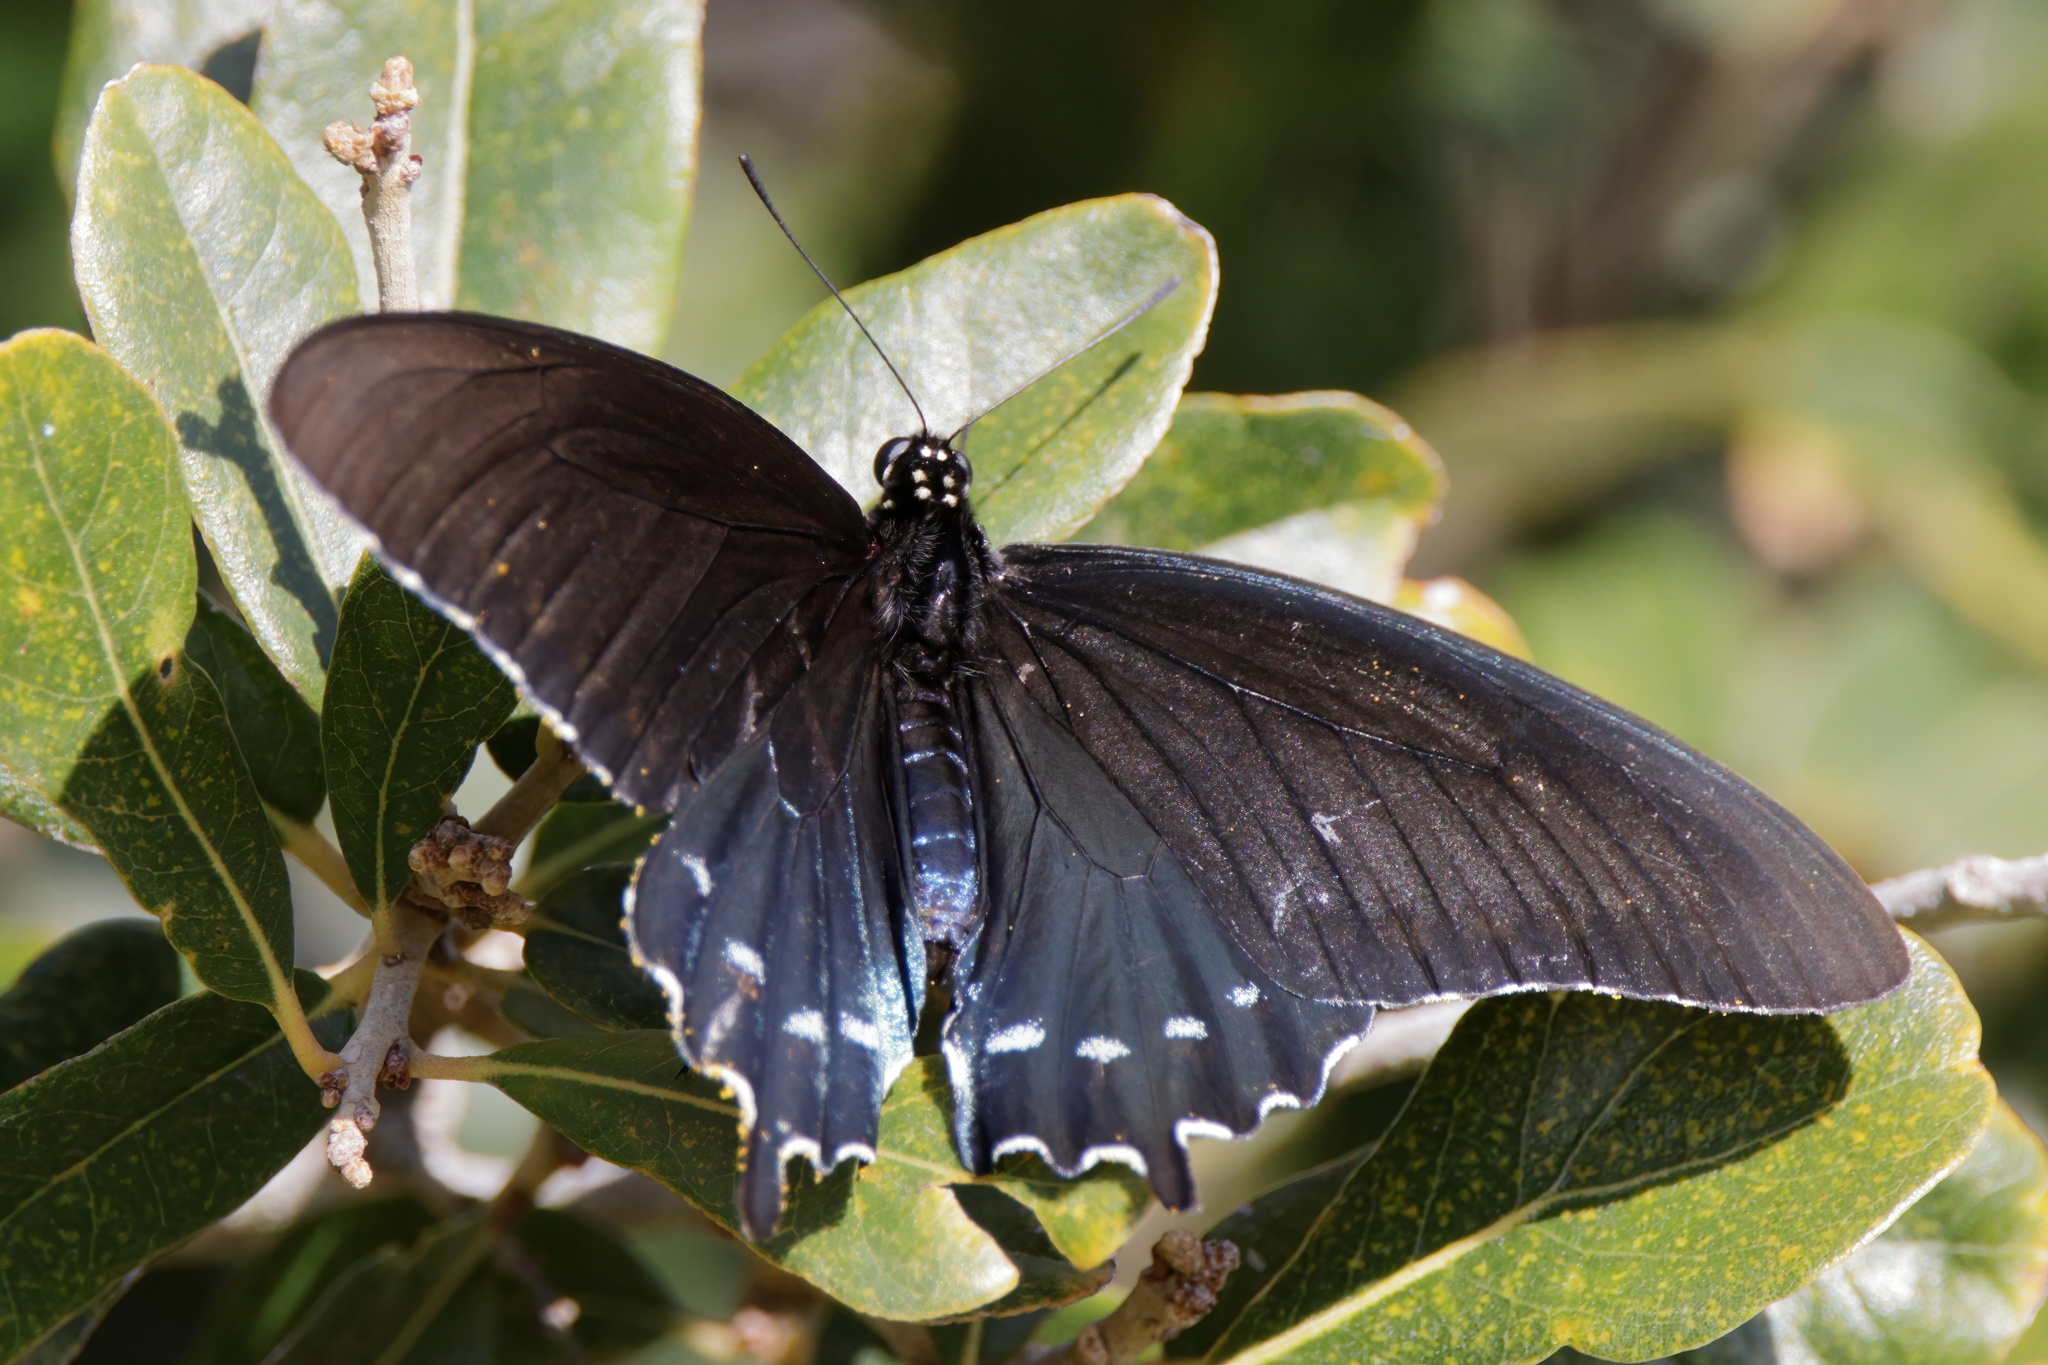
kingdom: Animalia
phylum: Arthropoda
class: Insecta
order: Lepidoptera
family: Papilionidae
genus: Battus
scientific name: Battus philenor
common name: Pipevine swallowtail
